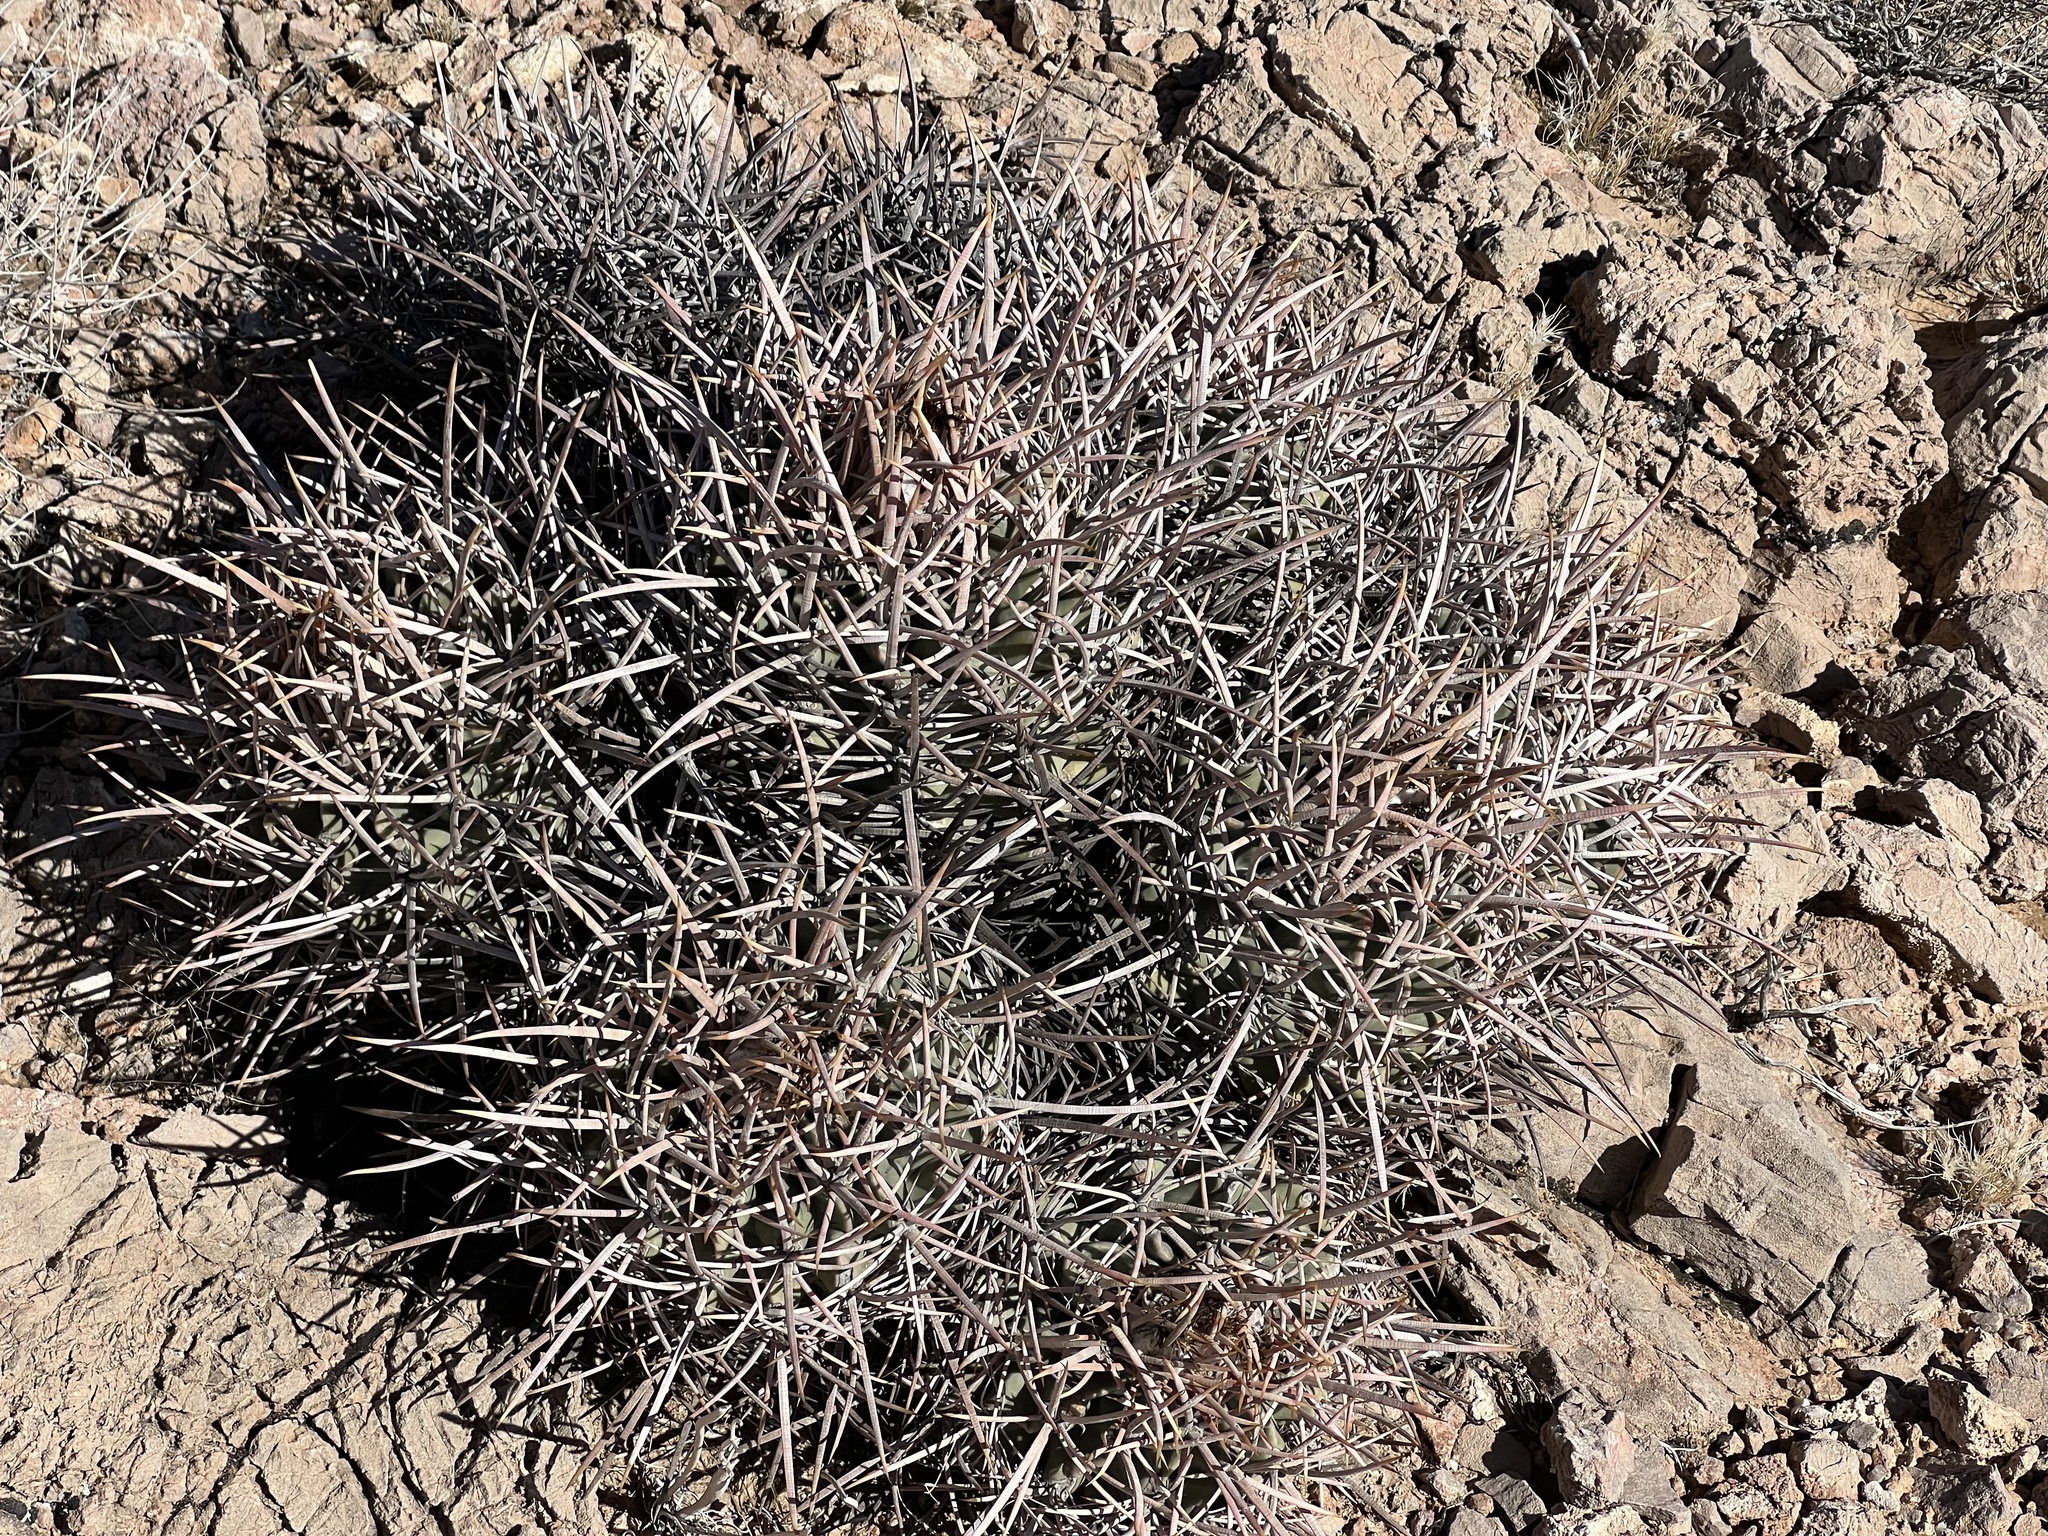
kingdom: Plantae
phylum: Tracheophyta
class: Magnoliopsida
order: Caryophyllales
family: Cactaceae
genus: Echinocactus
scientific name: Echinocactus polycephalus
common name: Cottontop cactus
